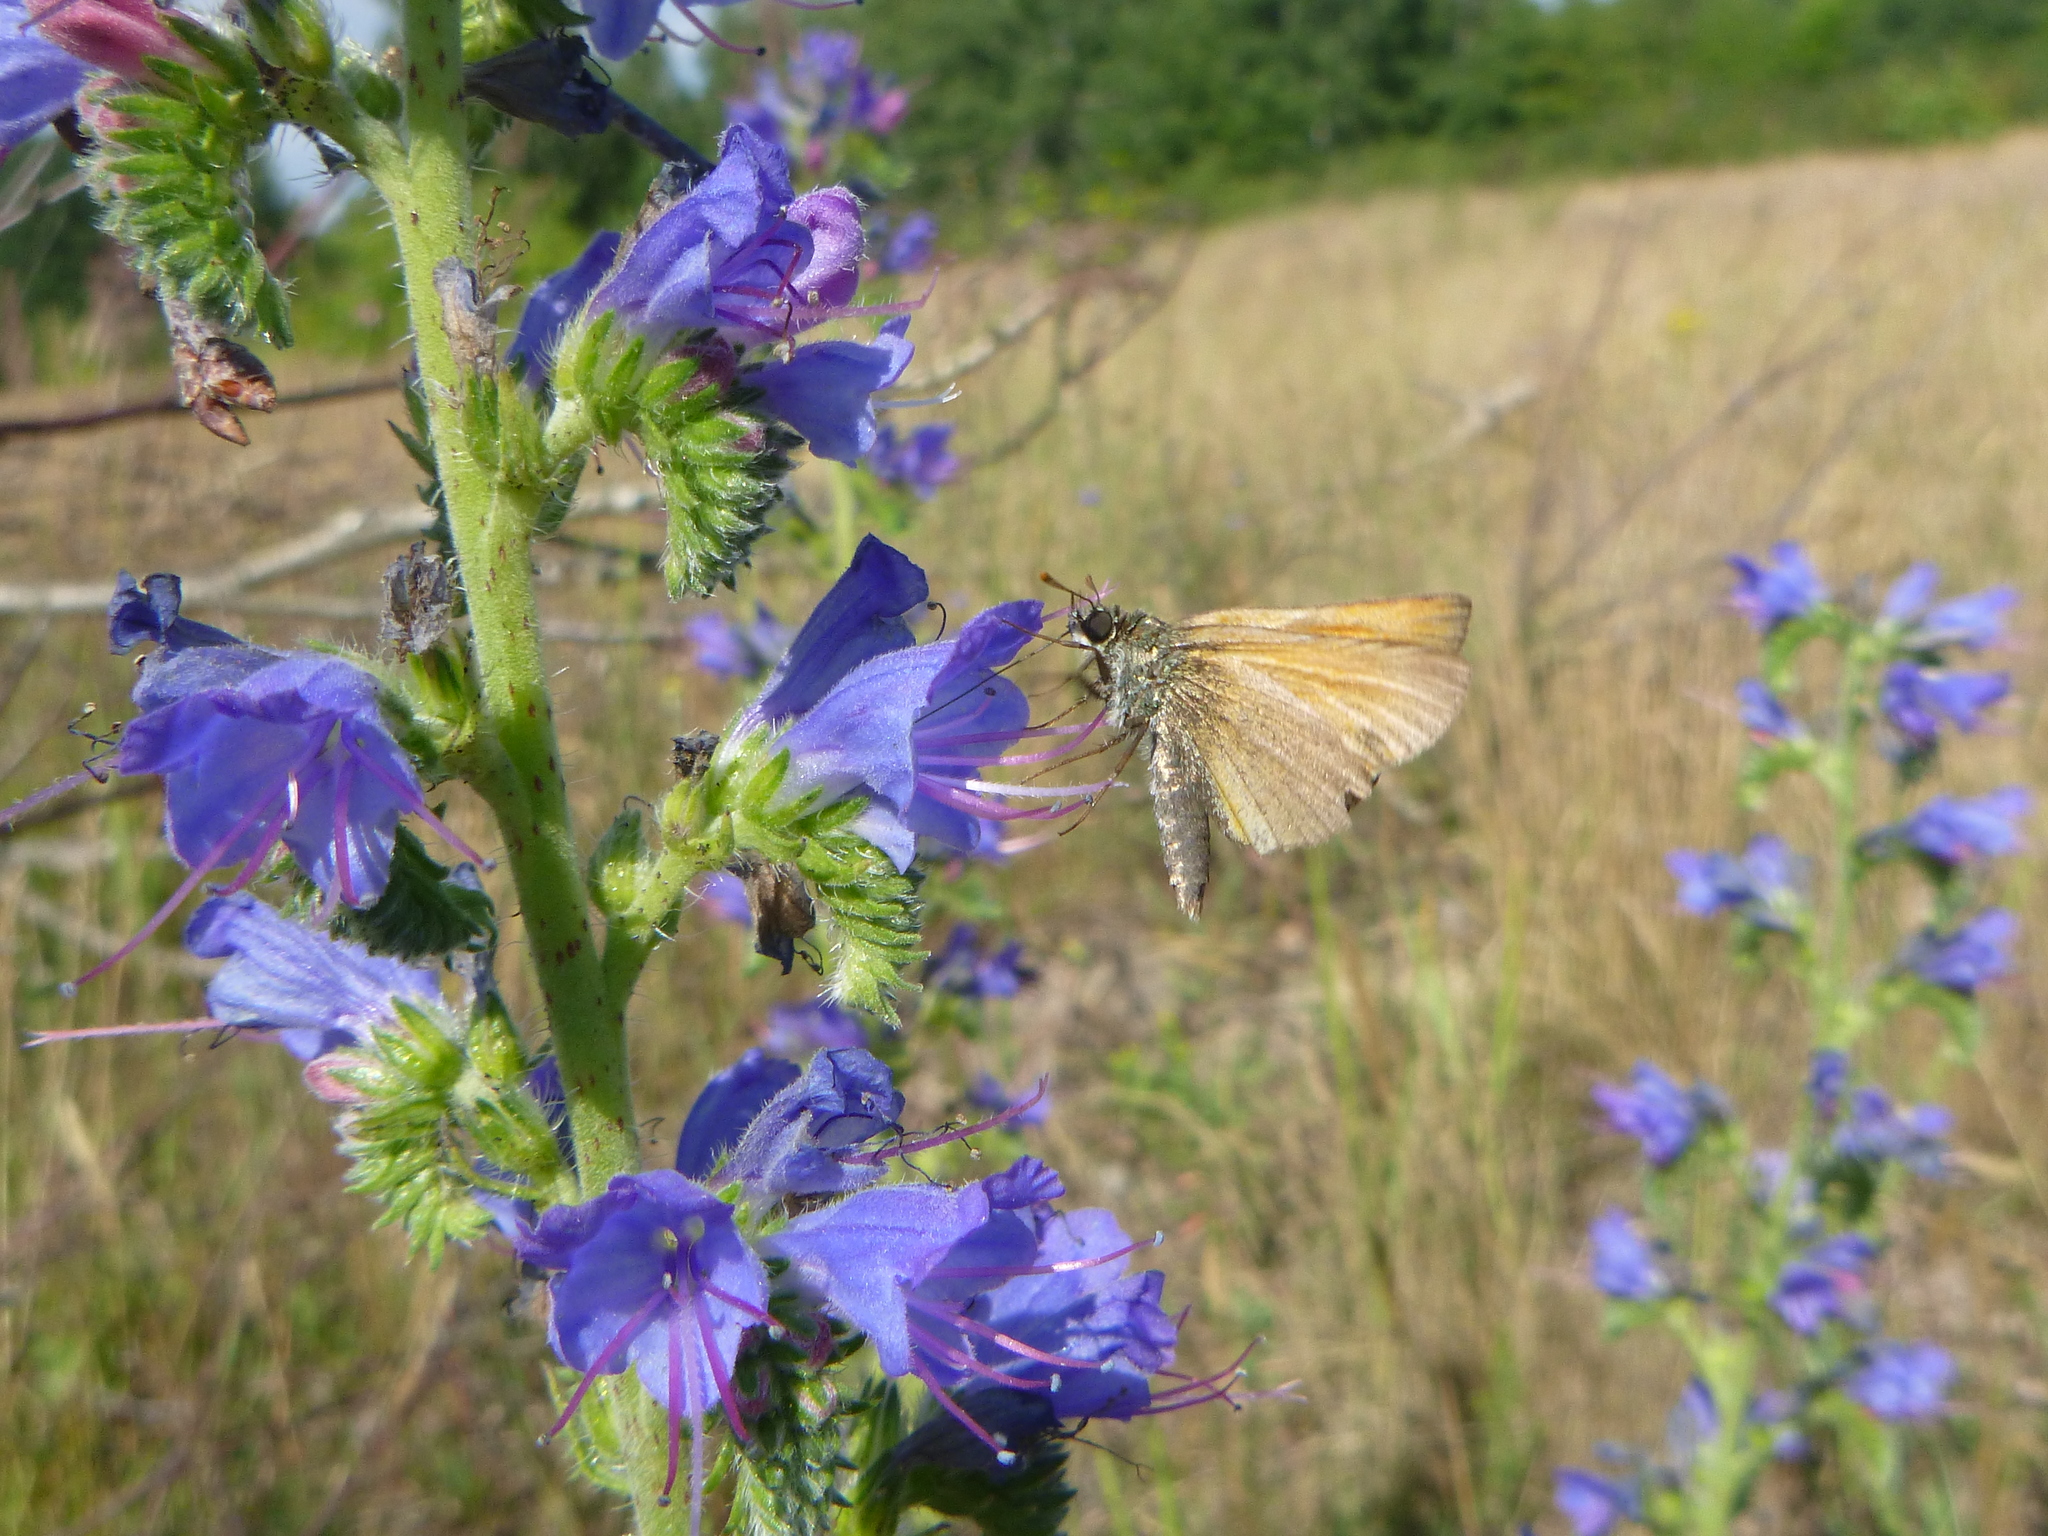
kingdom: Animalia
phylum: Arthropoda
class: Insecta
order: Lepidoptera
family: Hesperiidae
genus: Thymelicus
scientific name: Thymelicus sylvestris
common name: Small skipper
